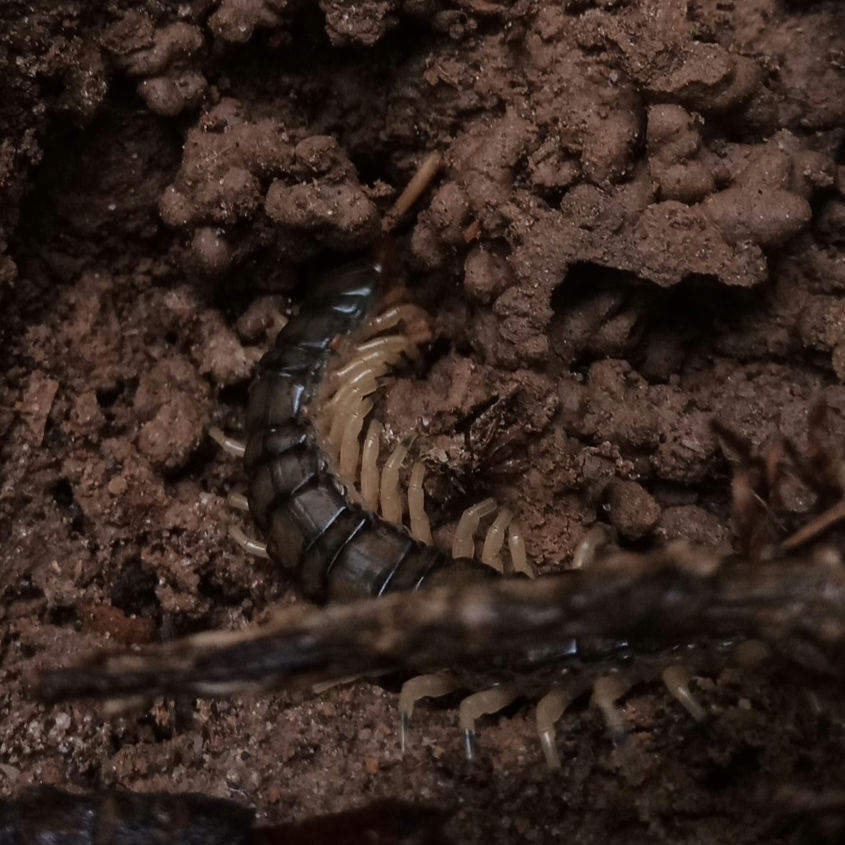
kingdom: Animalia
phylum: Arthropoda
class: Chilopoda
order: Scolopendromorpha
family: Scolopendridae
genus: Hemiscolopendra
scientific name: Hemiscolopendra marginata
